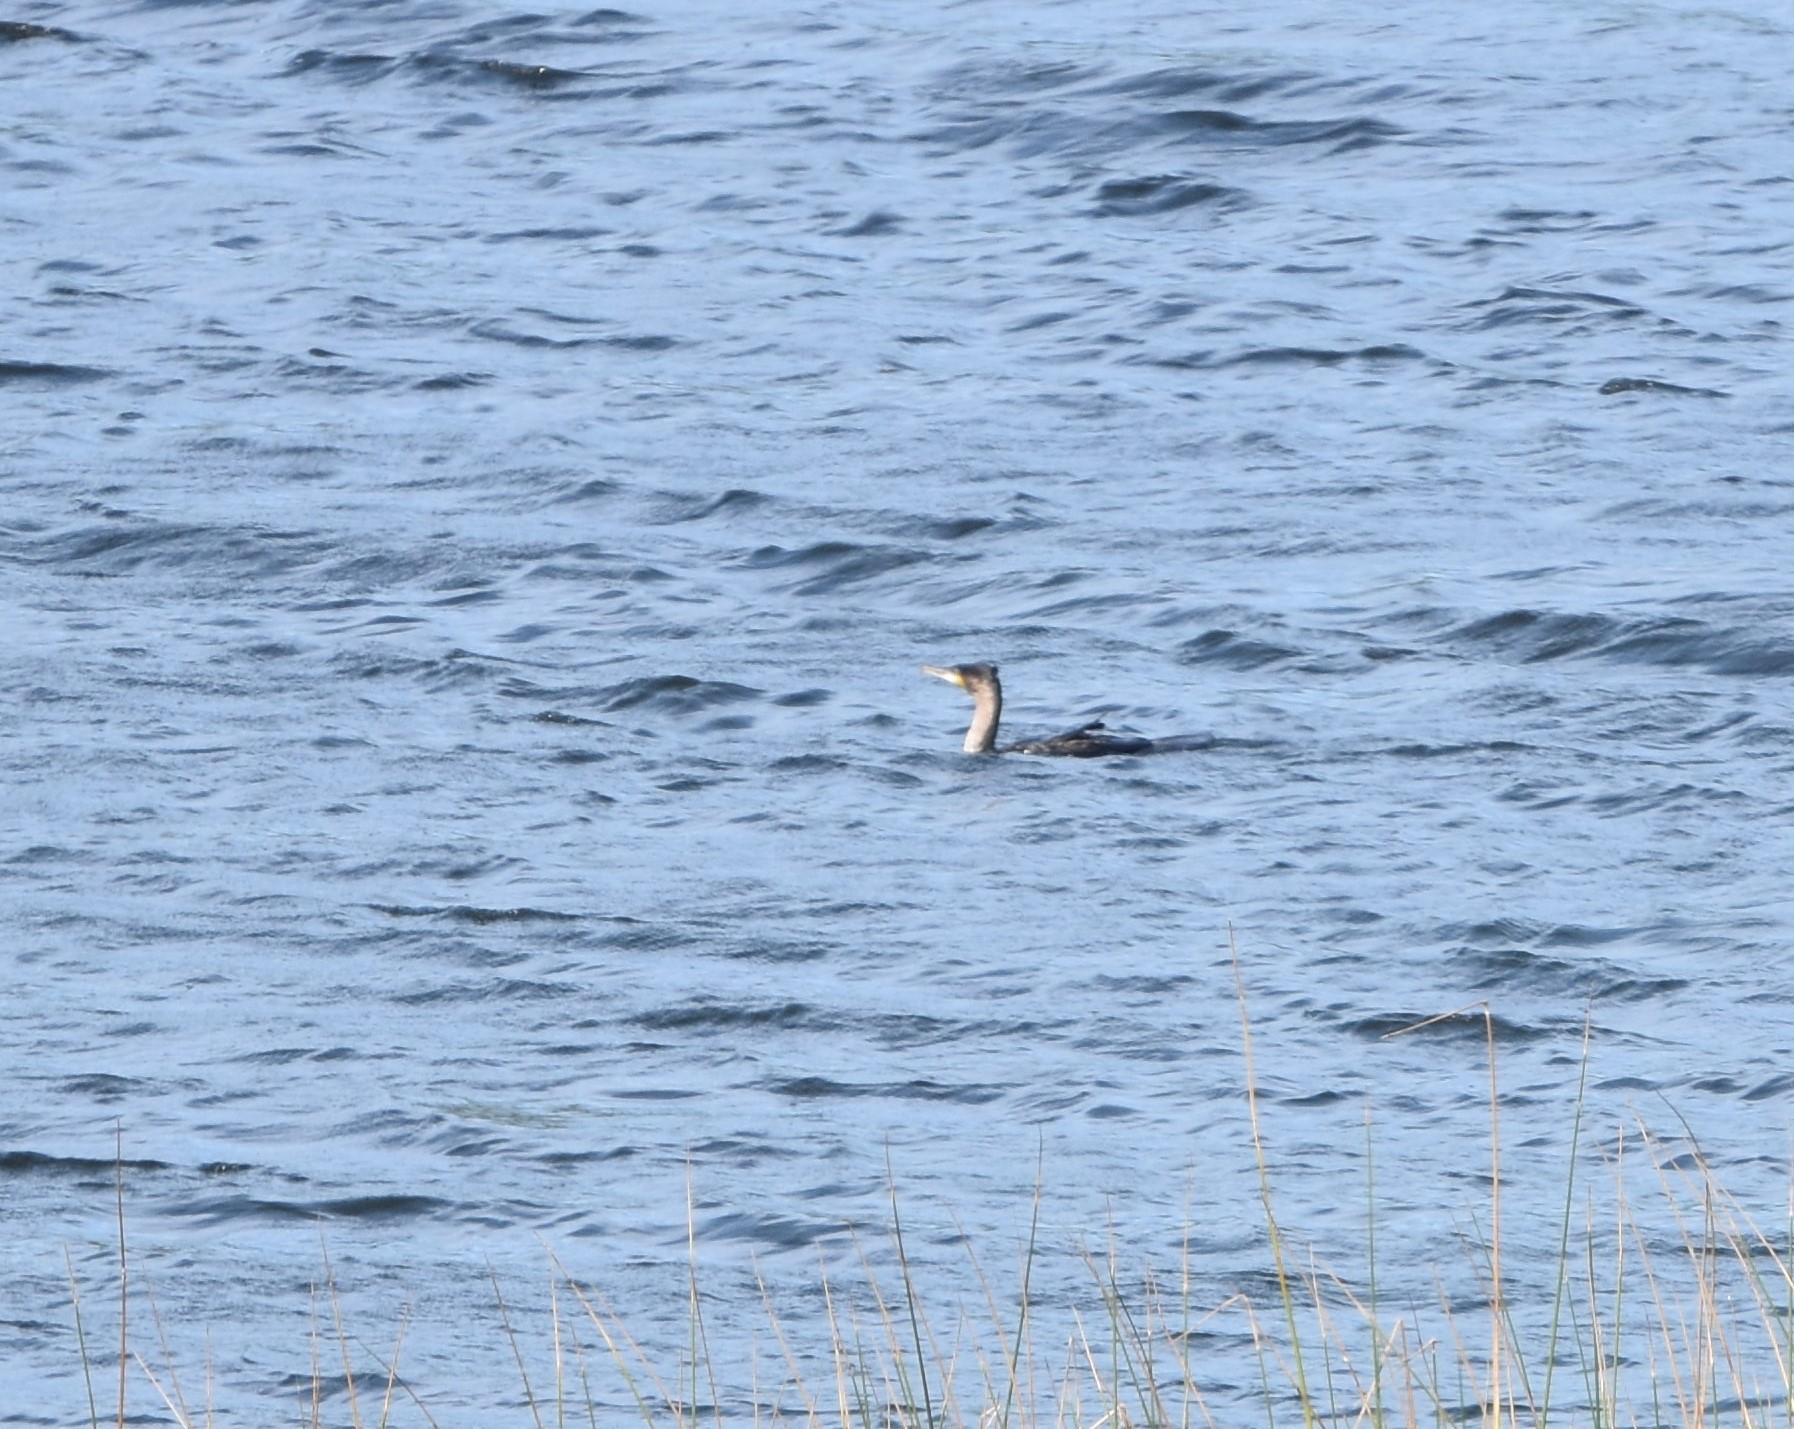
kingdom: Animalia
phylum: Chordata
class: Aves
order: Suliformes
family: Phalacrocoracidae
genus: Phalacrocorax
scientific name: Phalacrocorax carbo
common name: Great cormorant
